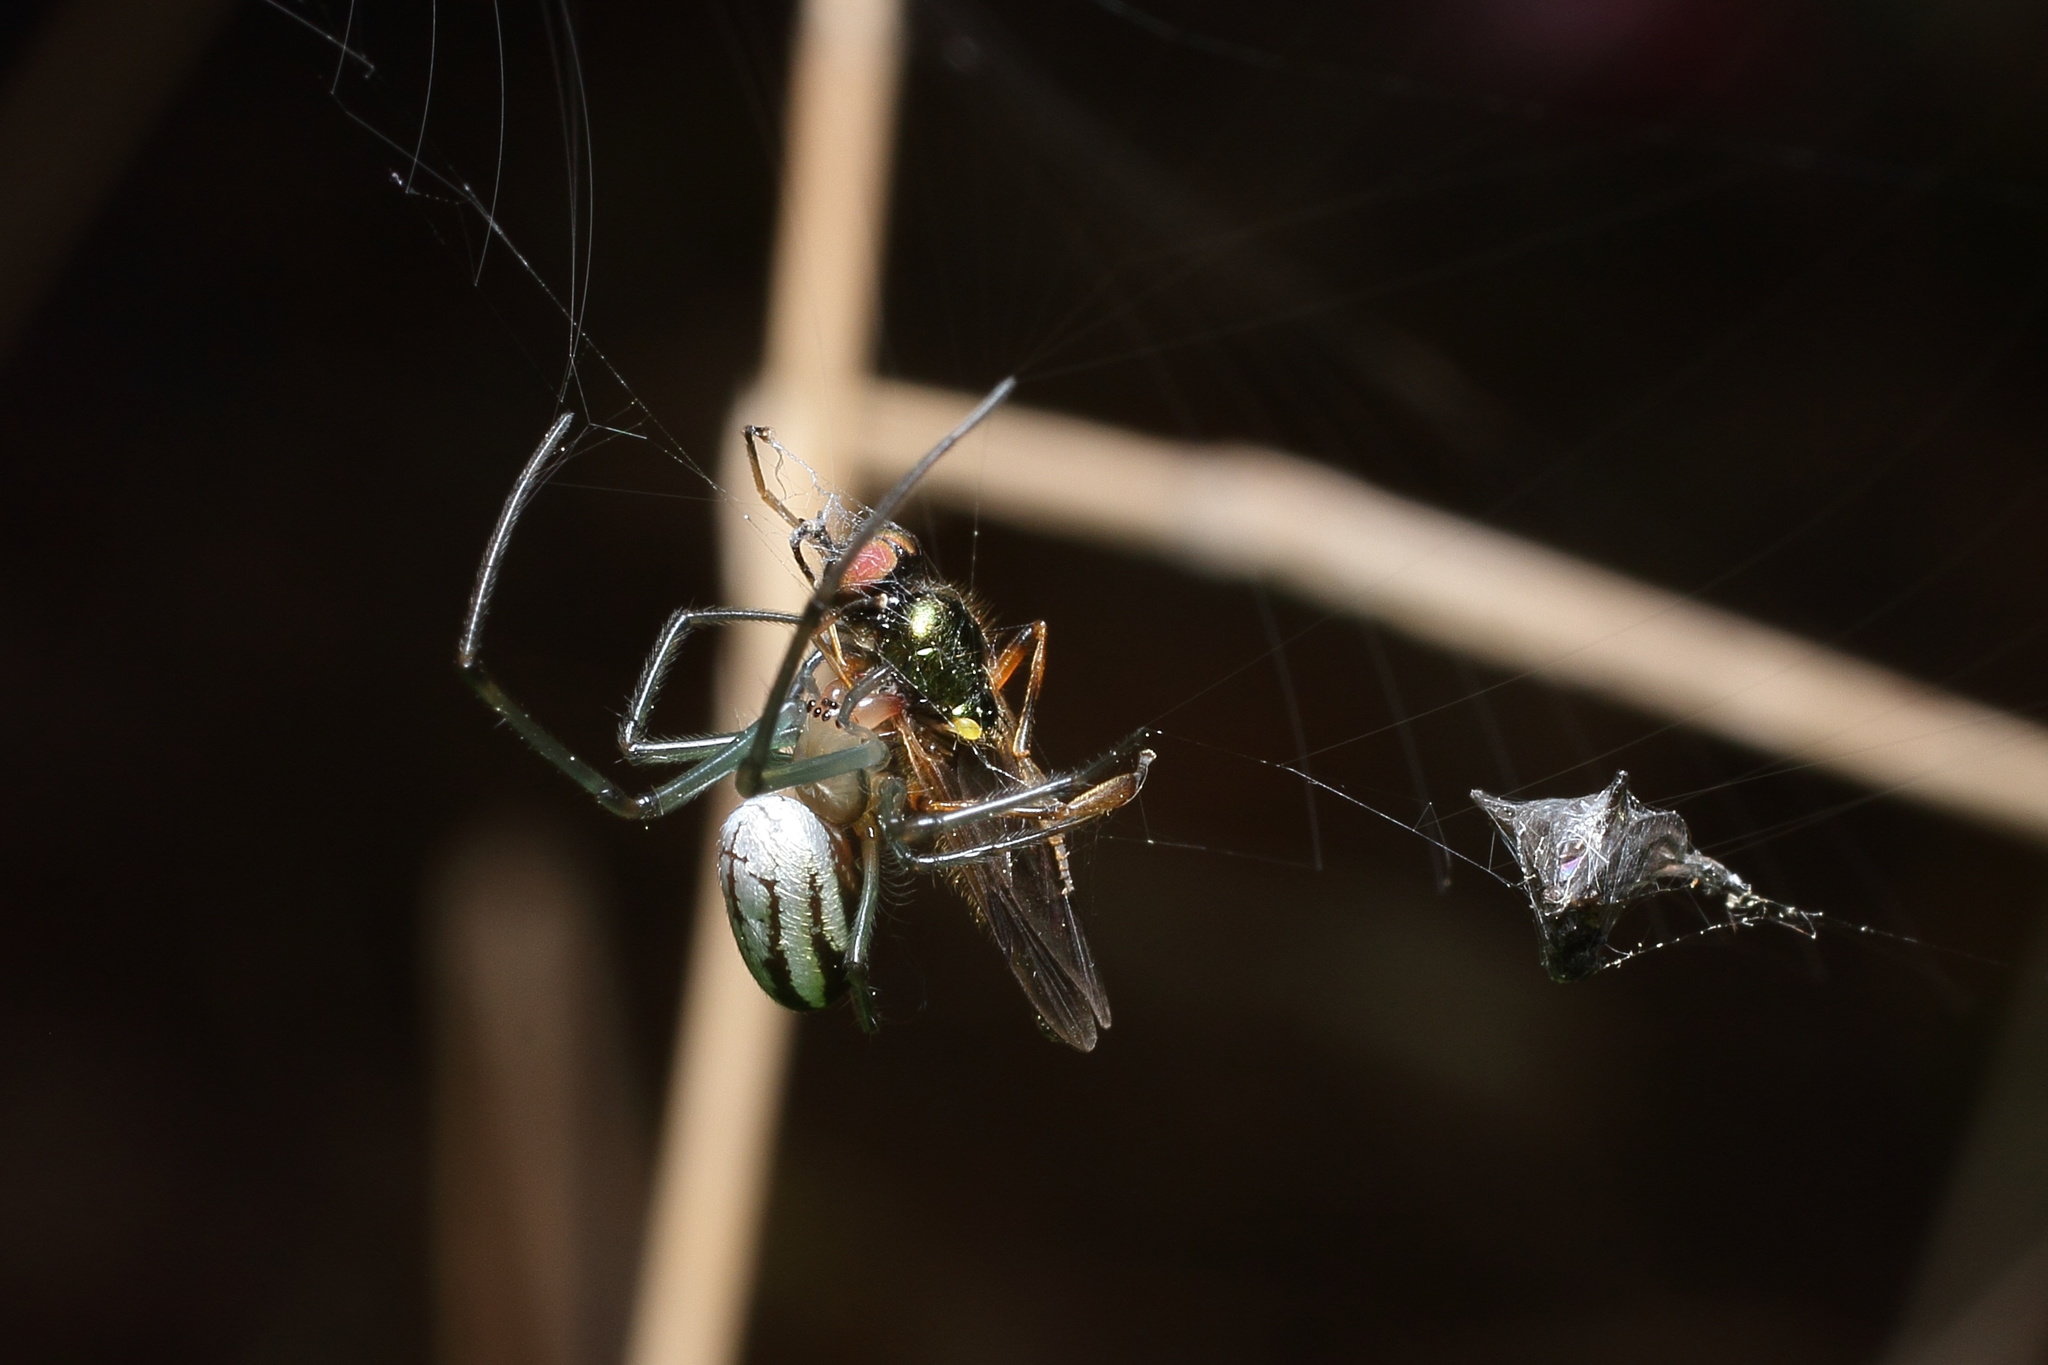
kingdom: Animalia
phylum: Arthropoda
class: Arachnida
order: Araneae
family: Tetragnathidae
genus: Leucauge
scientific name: Leucauge celebesiana
